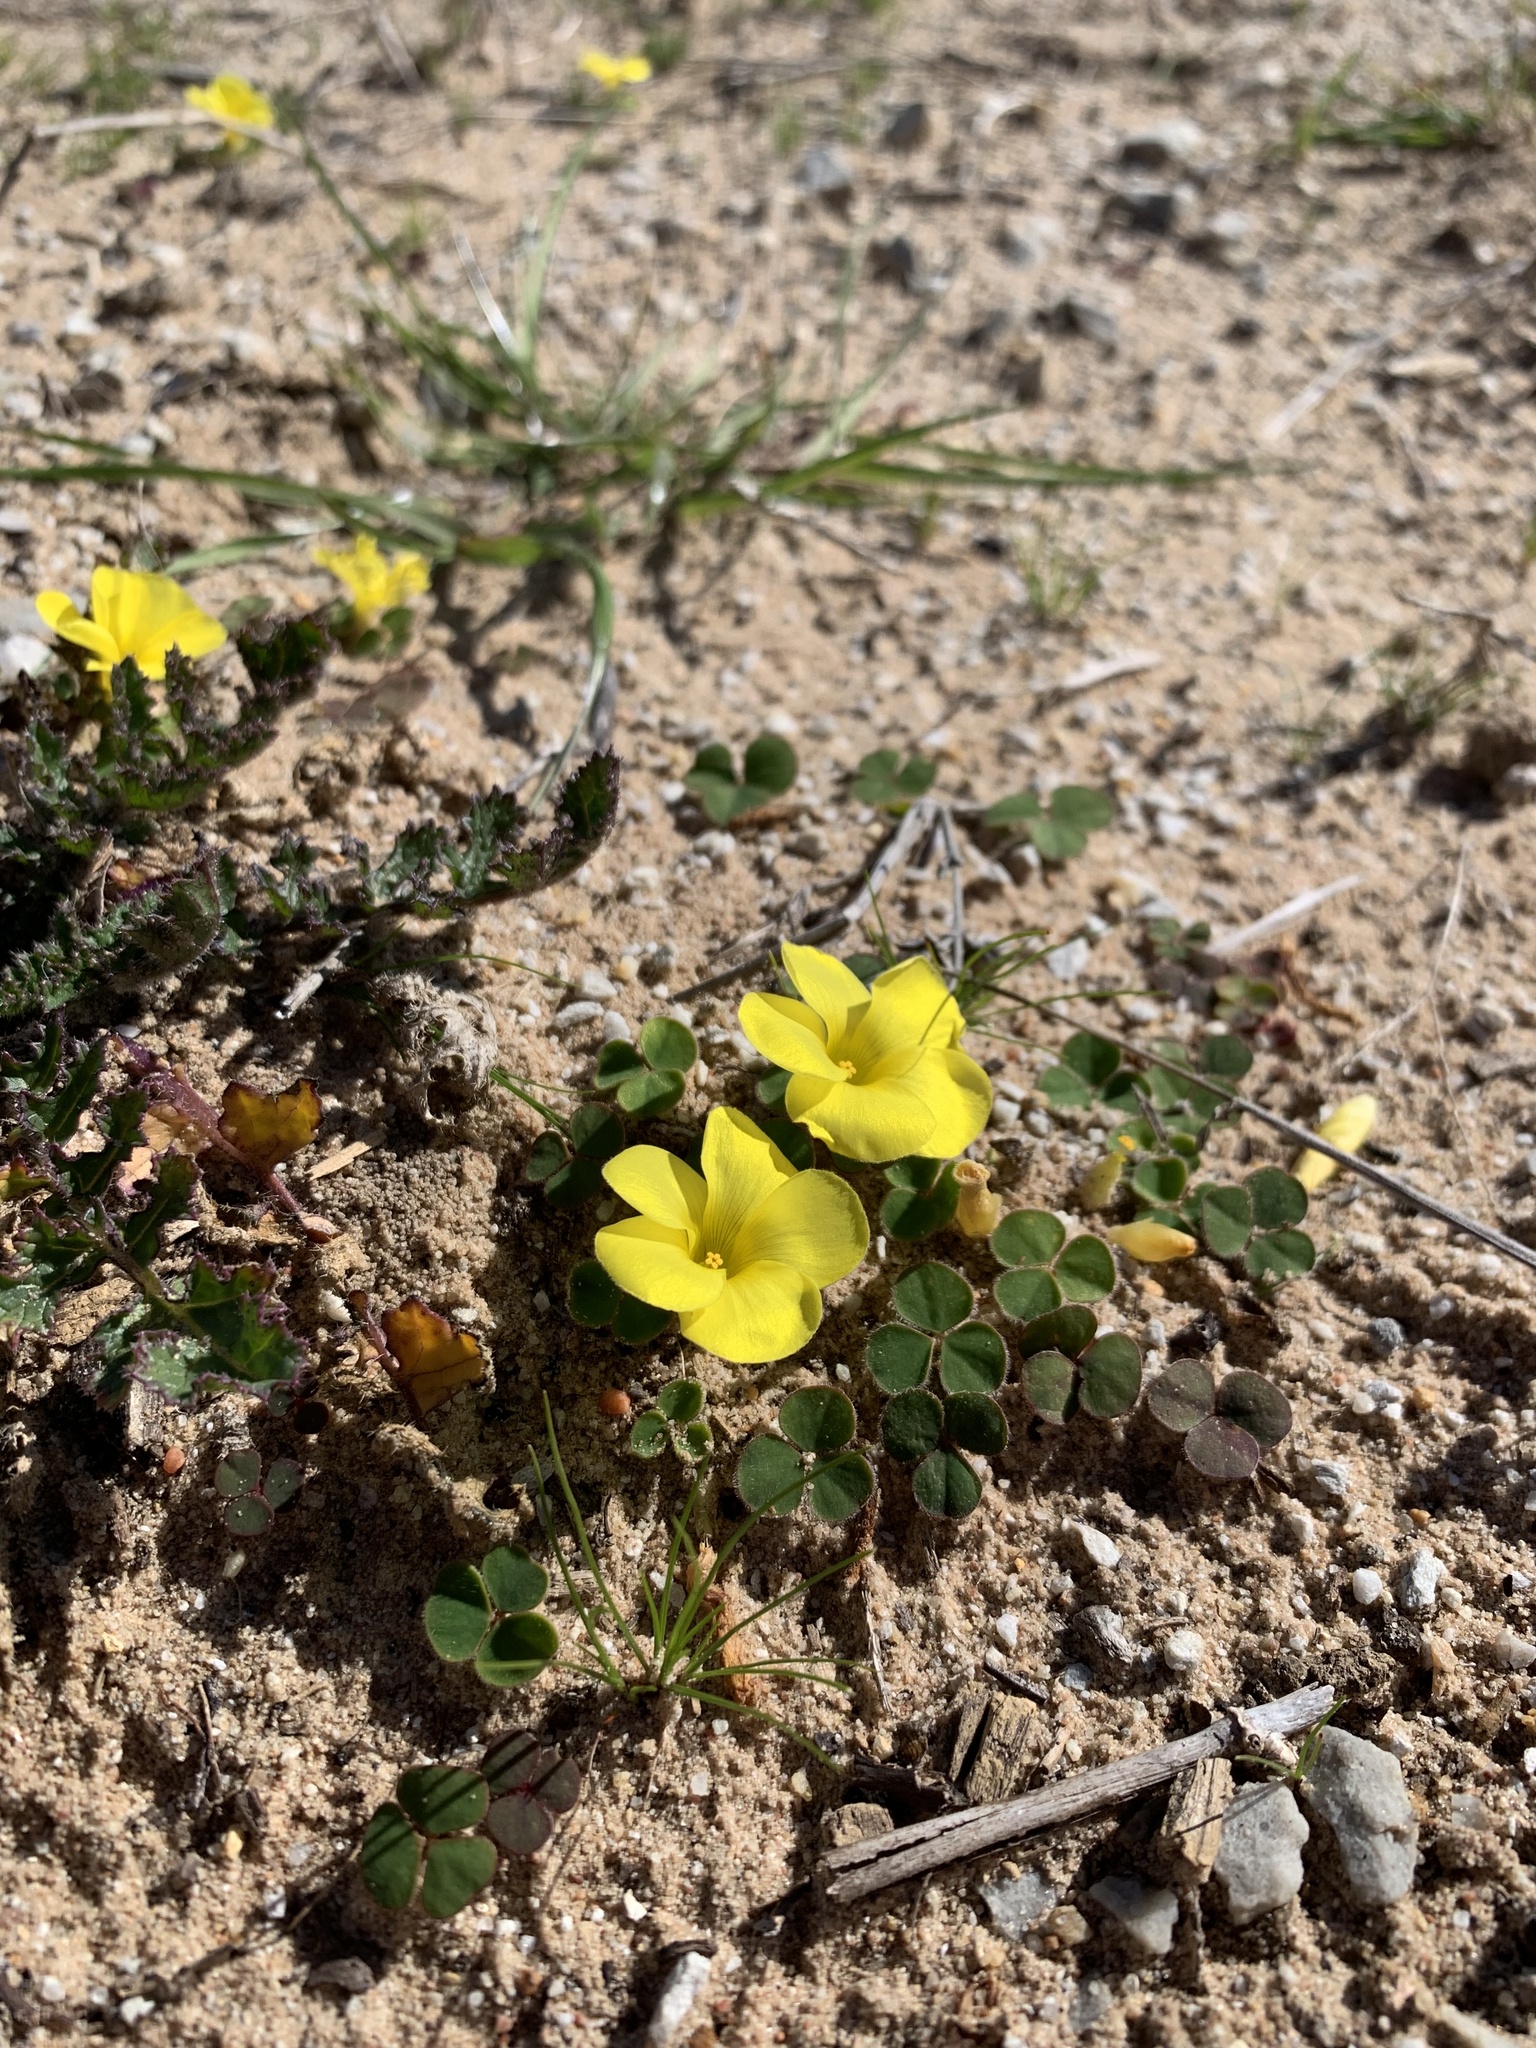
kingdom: Plantae
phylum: Tracheophyta
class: Magnoliopsida
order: Oxalidales
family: Oxalidaceae
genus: Oxalis
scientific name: Oxalis luteola
